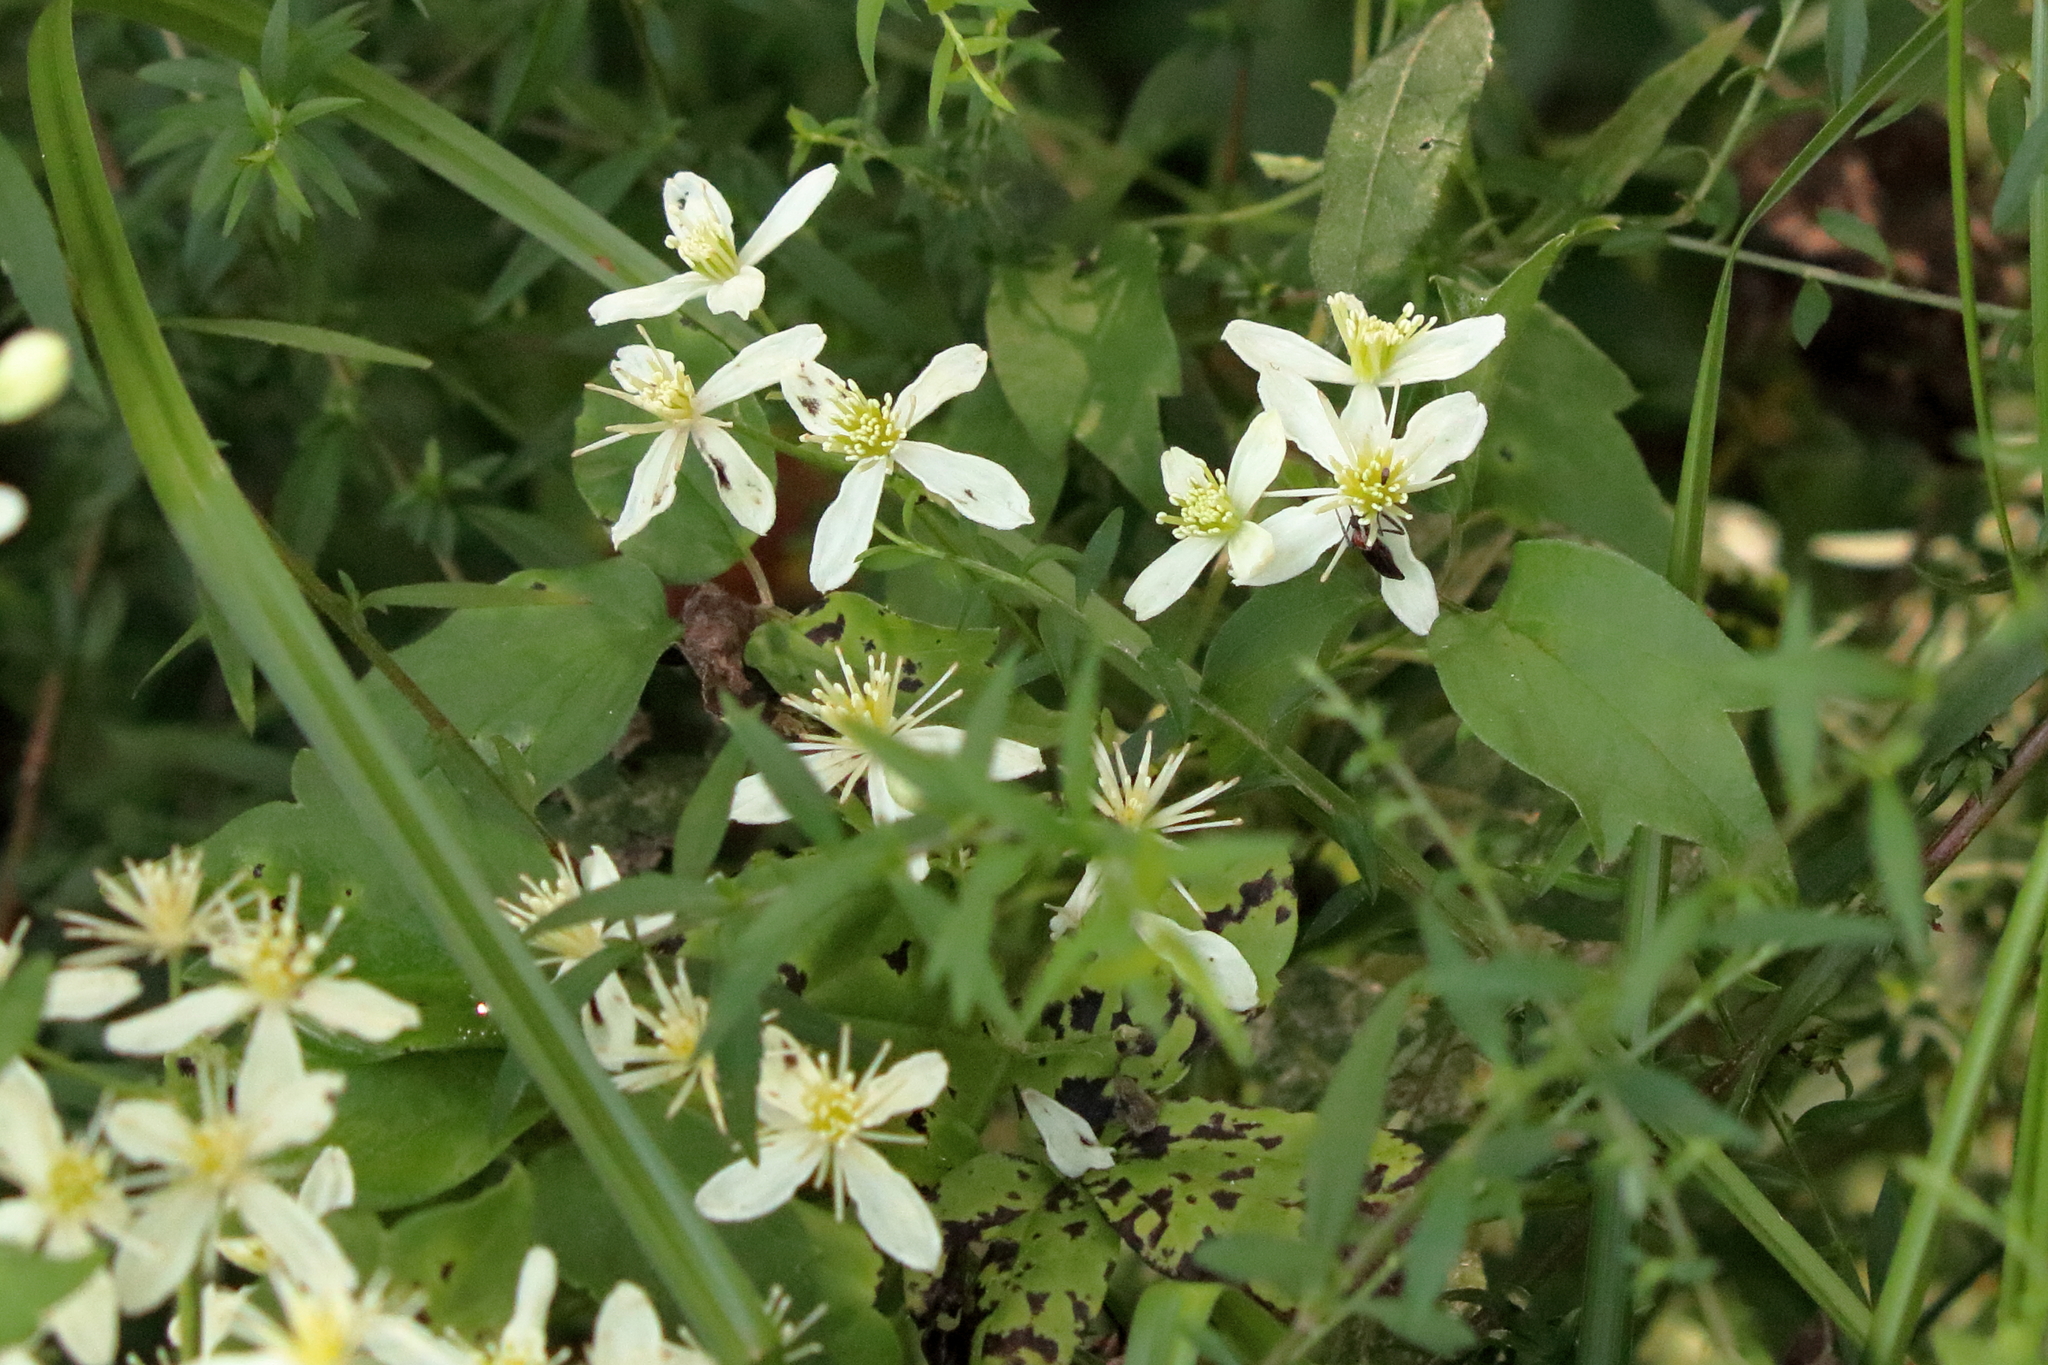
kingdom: Plantae
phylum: Tracheophyta
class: Magnoliopsida
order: Ranunculales
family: Ranunculaceae
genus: Clematis
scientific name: Clematis virginiana
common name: Virgin's-bower
